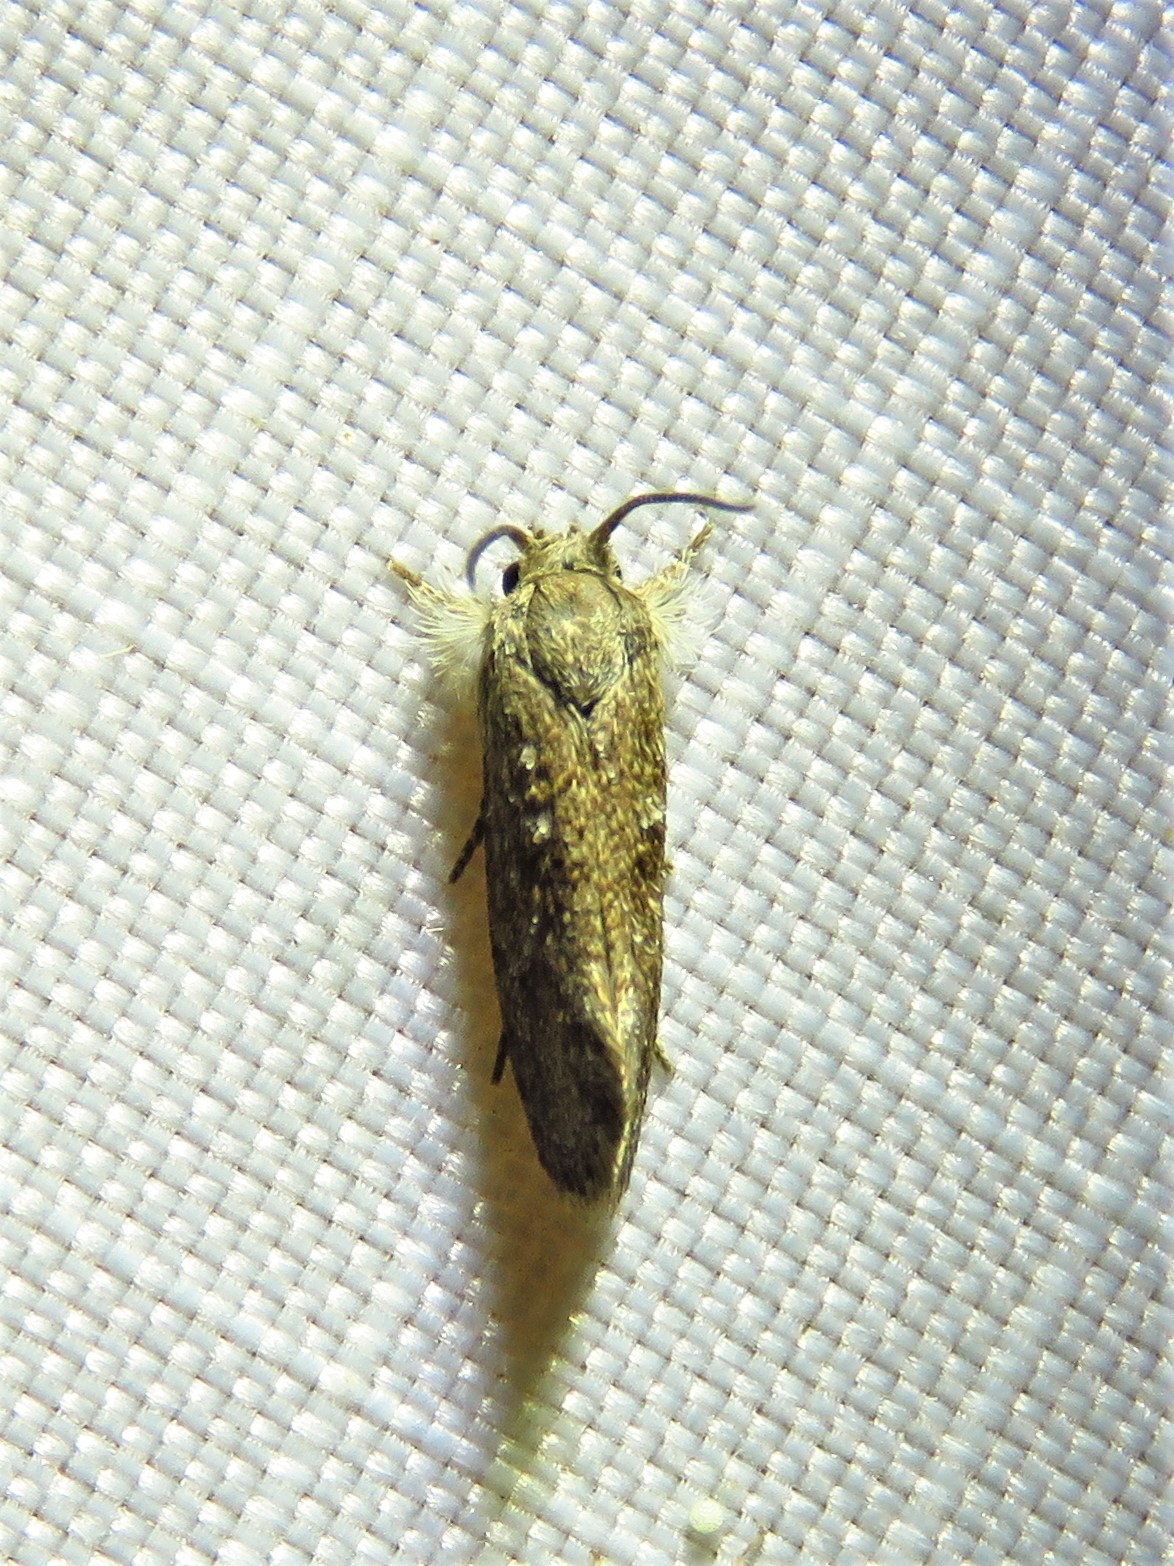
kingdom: Animalia
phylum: Arthropoda
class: Insecta
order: Lepidoptera
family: Tineidae
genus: Acrolophus
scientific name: Acrolophus heppneri
